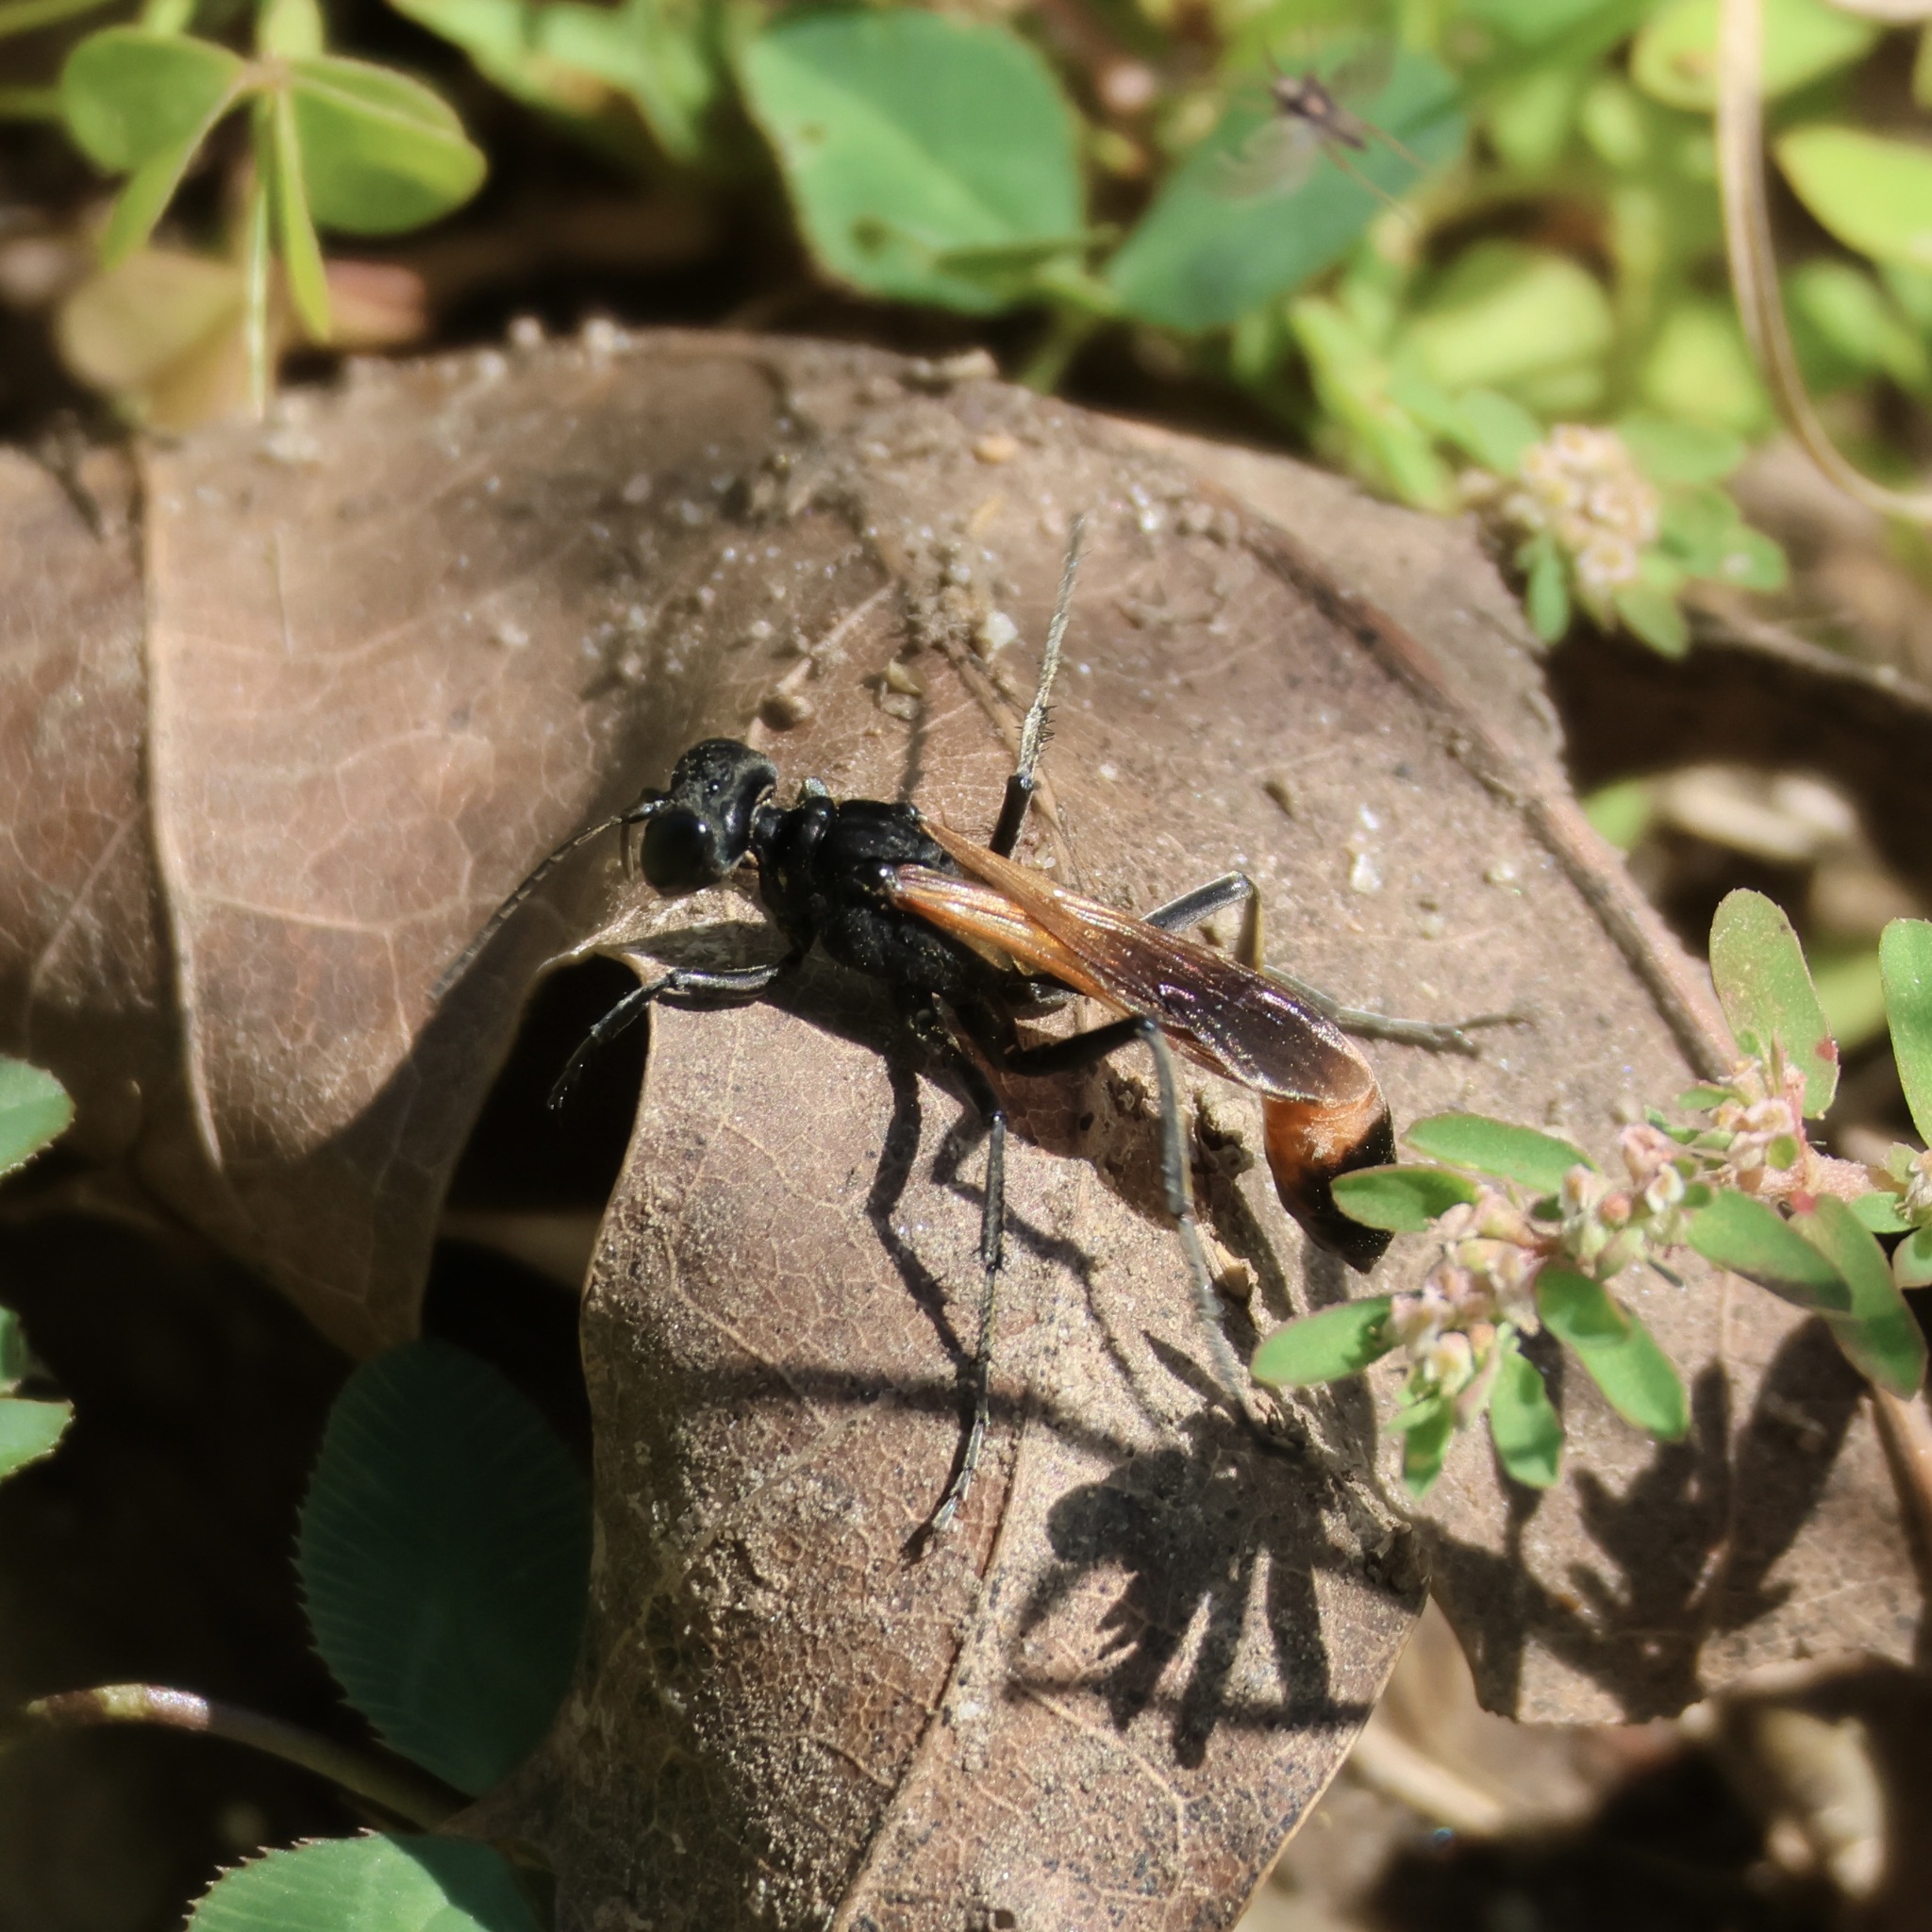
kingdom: Animalia
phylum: Arthropoda
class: Insecta
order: Hymenoptera
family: Sphecidae
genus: Ammophila
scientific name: Ammophila pictipennis
